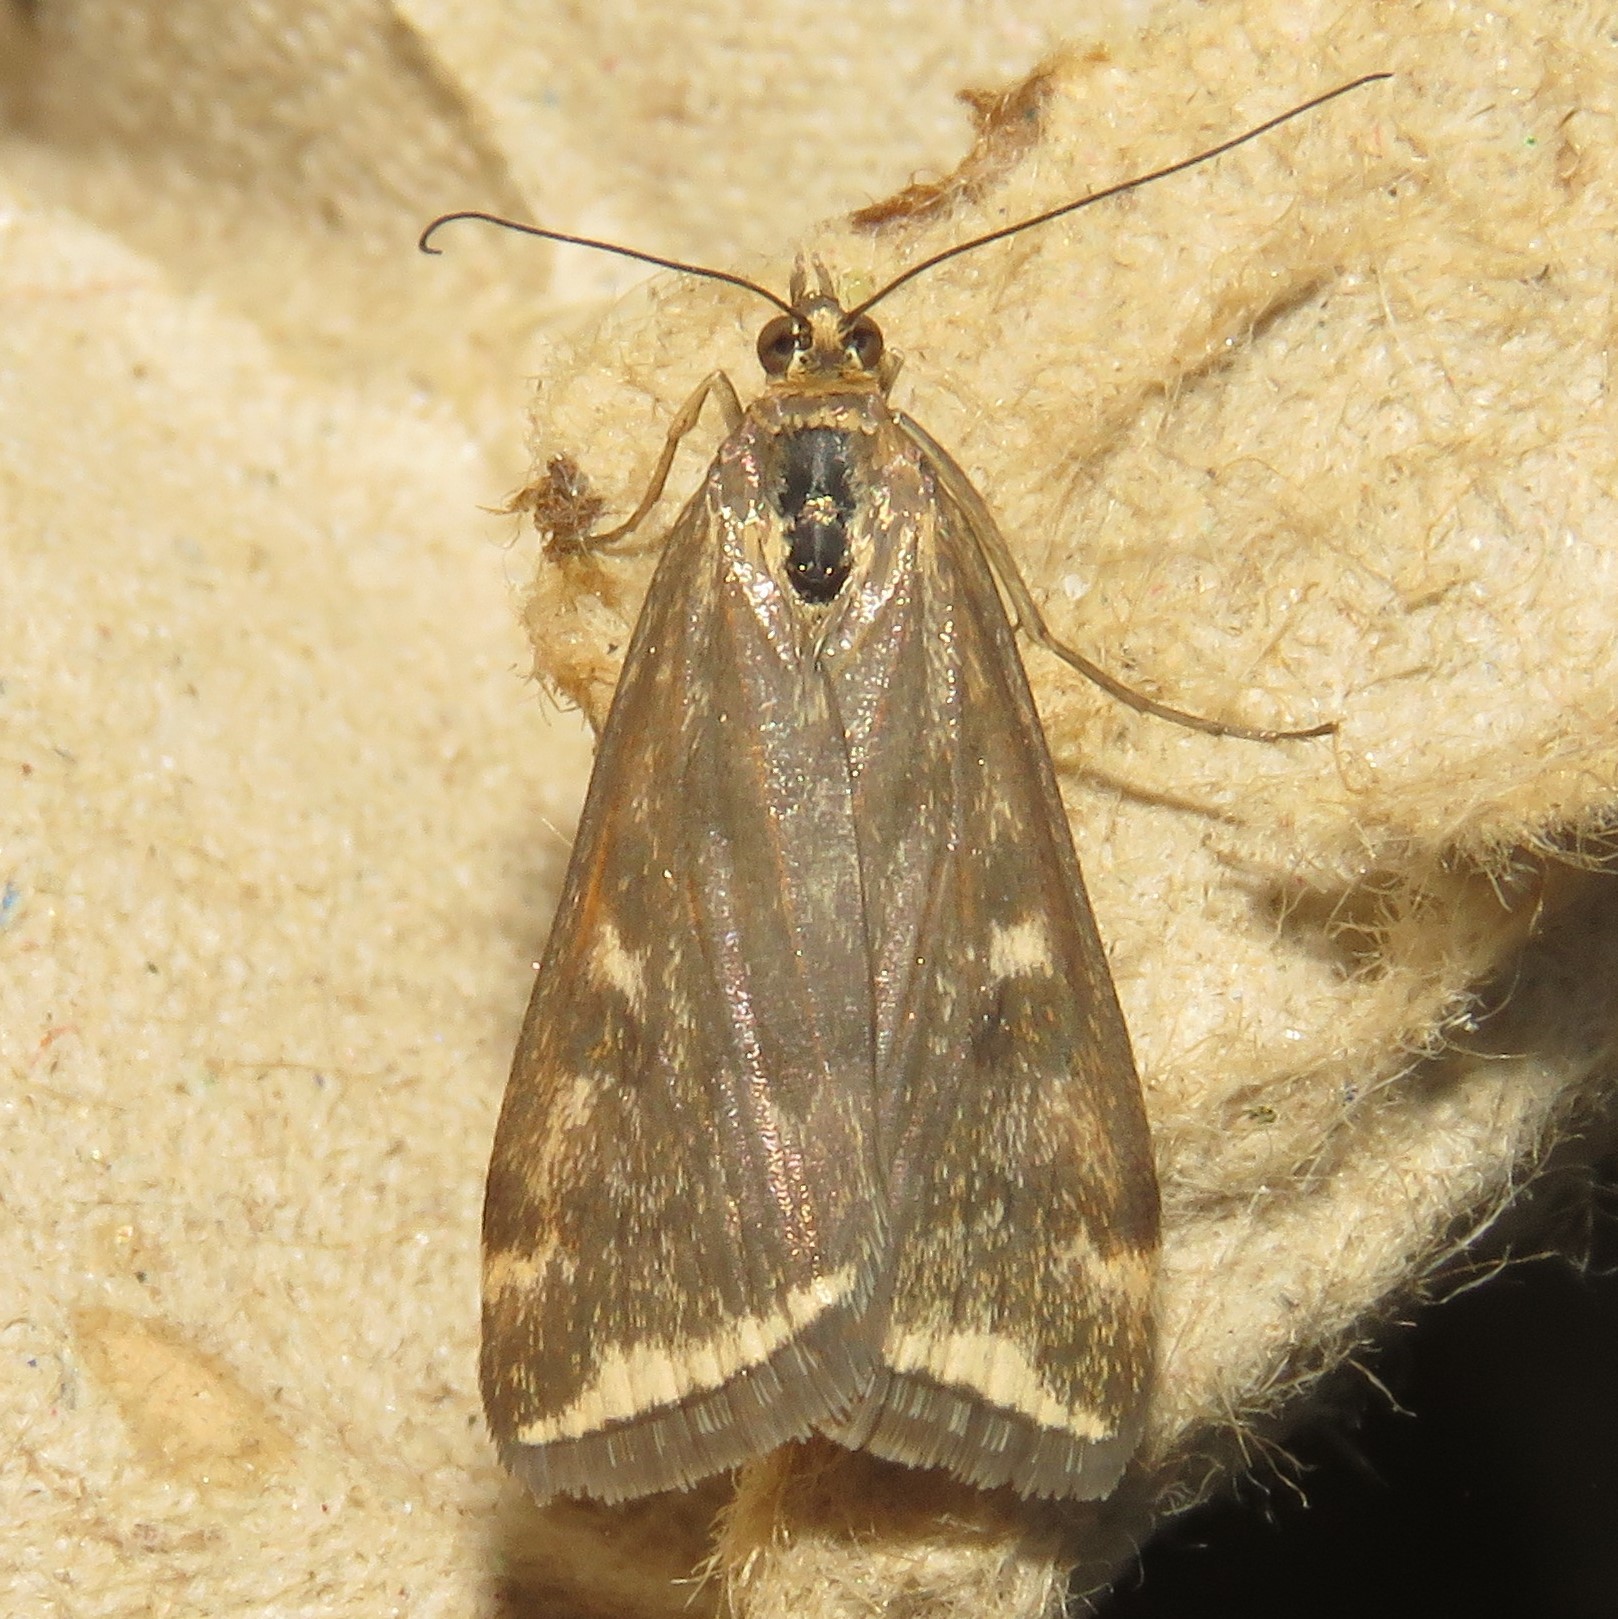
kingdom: Animalia
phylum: Arthropoda
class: Insecta
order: Lepidoptera
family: Crambidae
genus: Loxostege
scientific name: Loxostege
